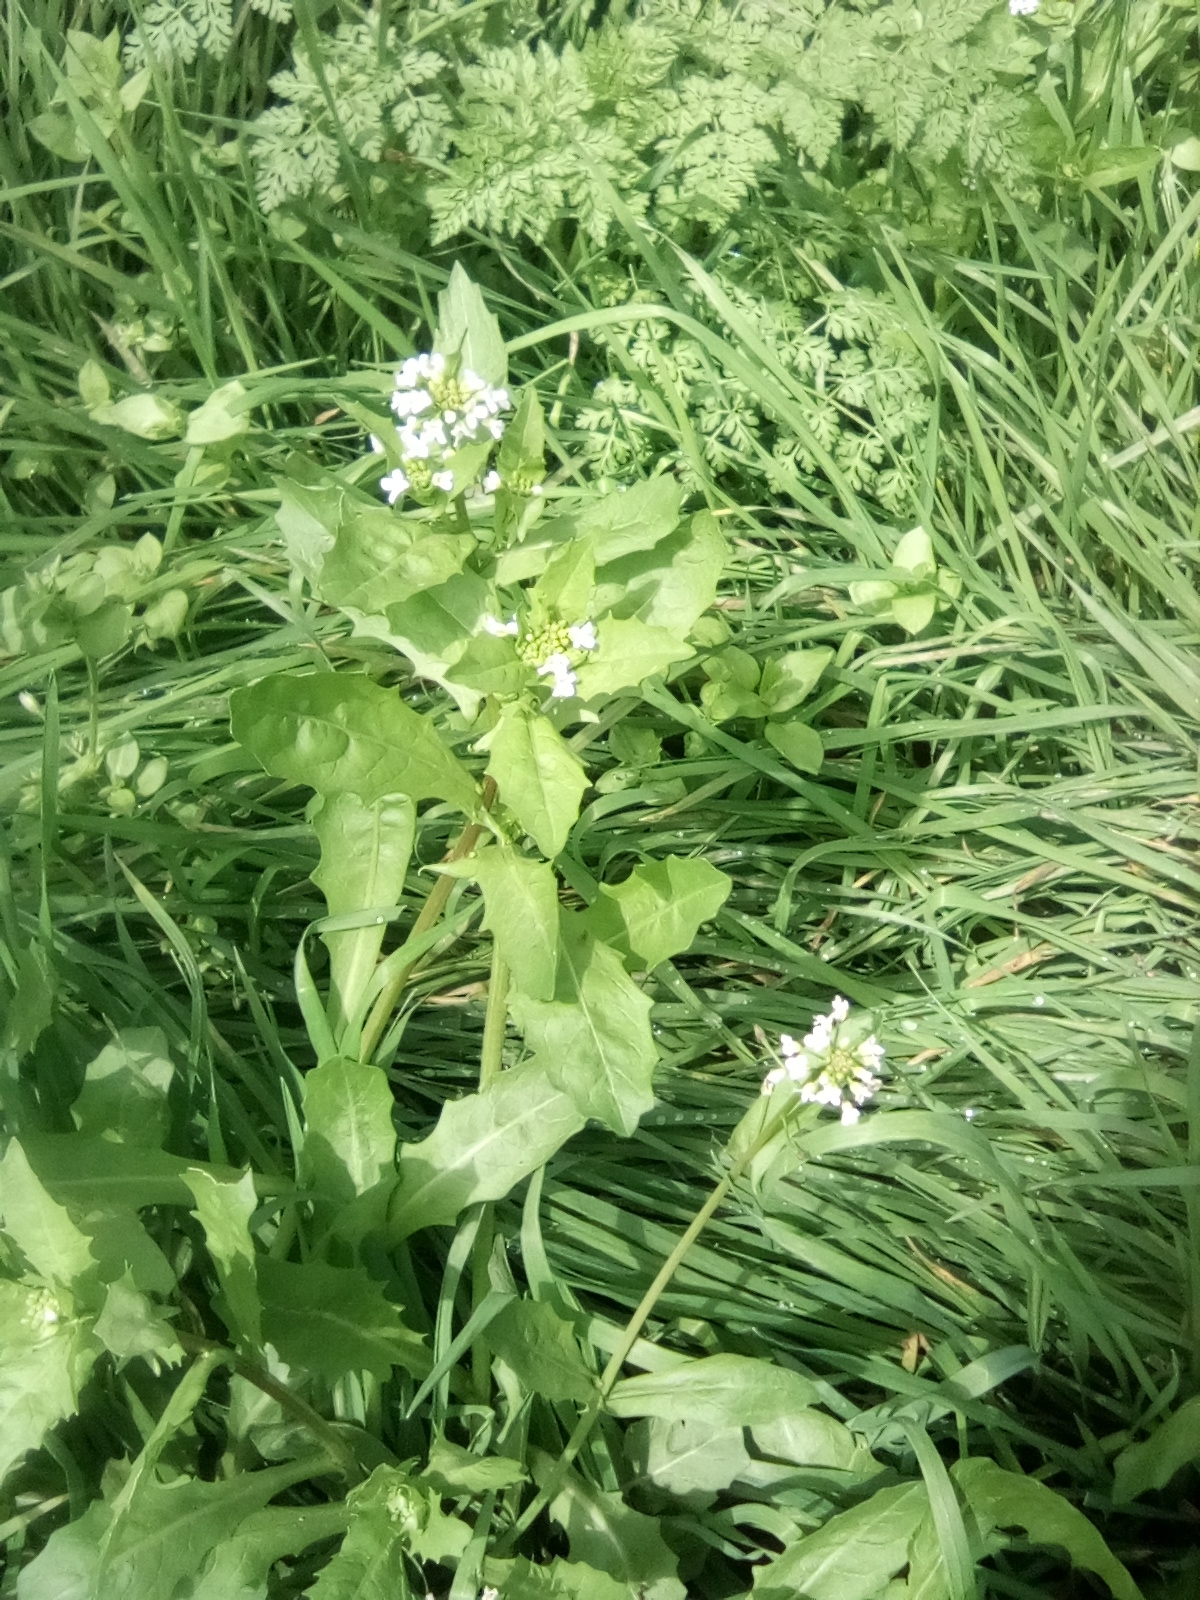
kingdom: Plantae
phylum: Tracheophyta
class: Magnoliopsida
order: Brassicales
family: Brassicaceae
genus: Calepina
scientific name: Calepina irregularis
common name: White ballmustard
